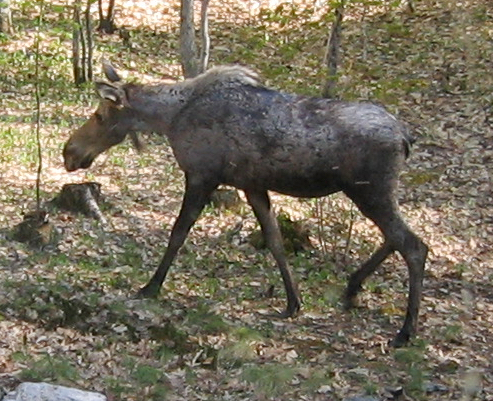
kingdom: Animalia
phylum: Chordata
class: Mammalia
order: Artiodactyla
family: Cervidae
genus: Alces
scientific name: Alces alces
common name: Moose
